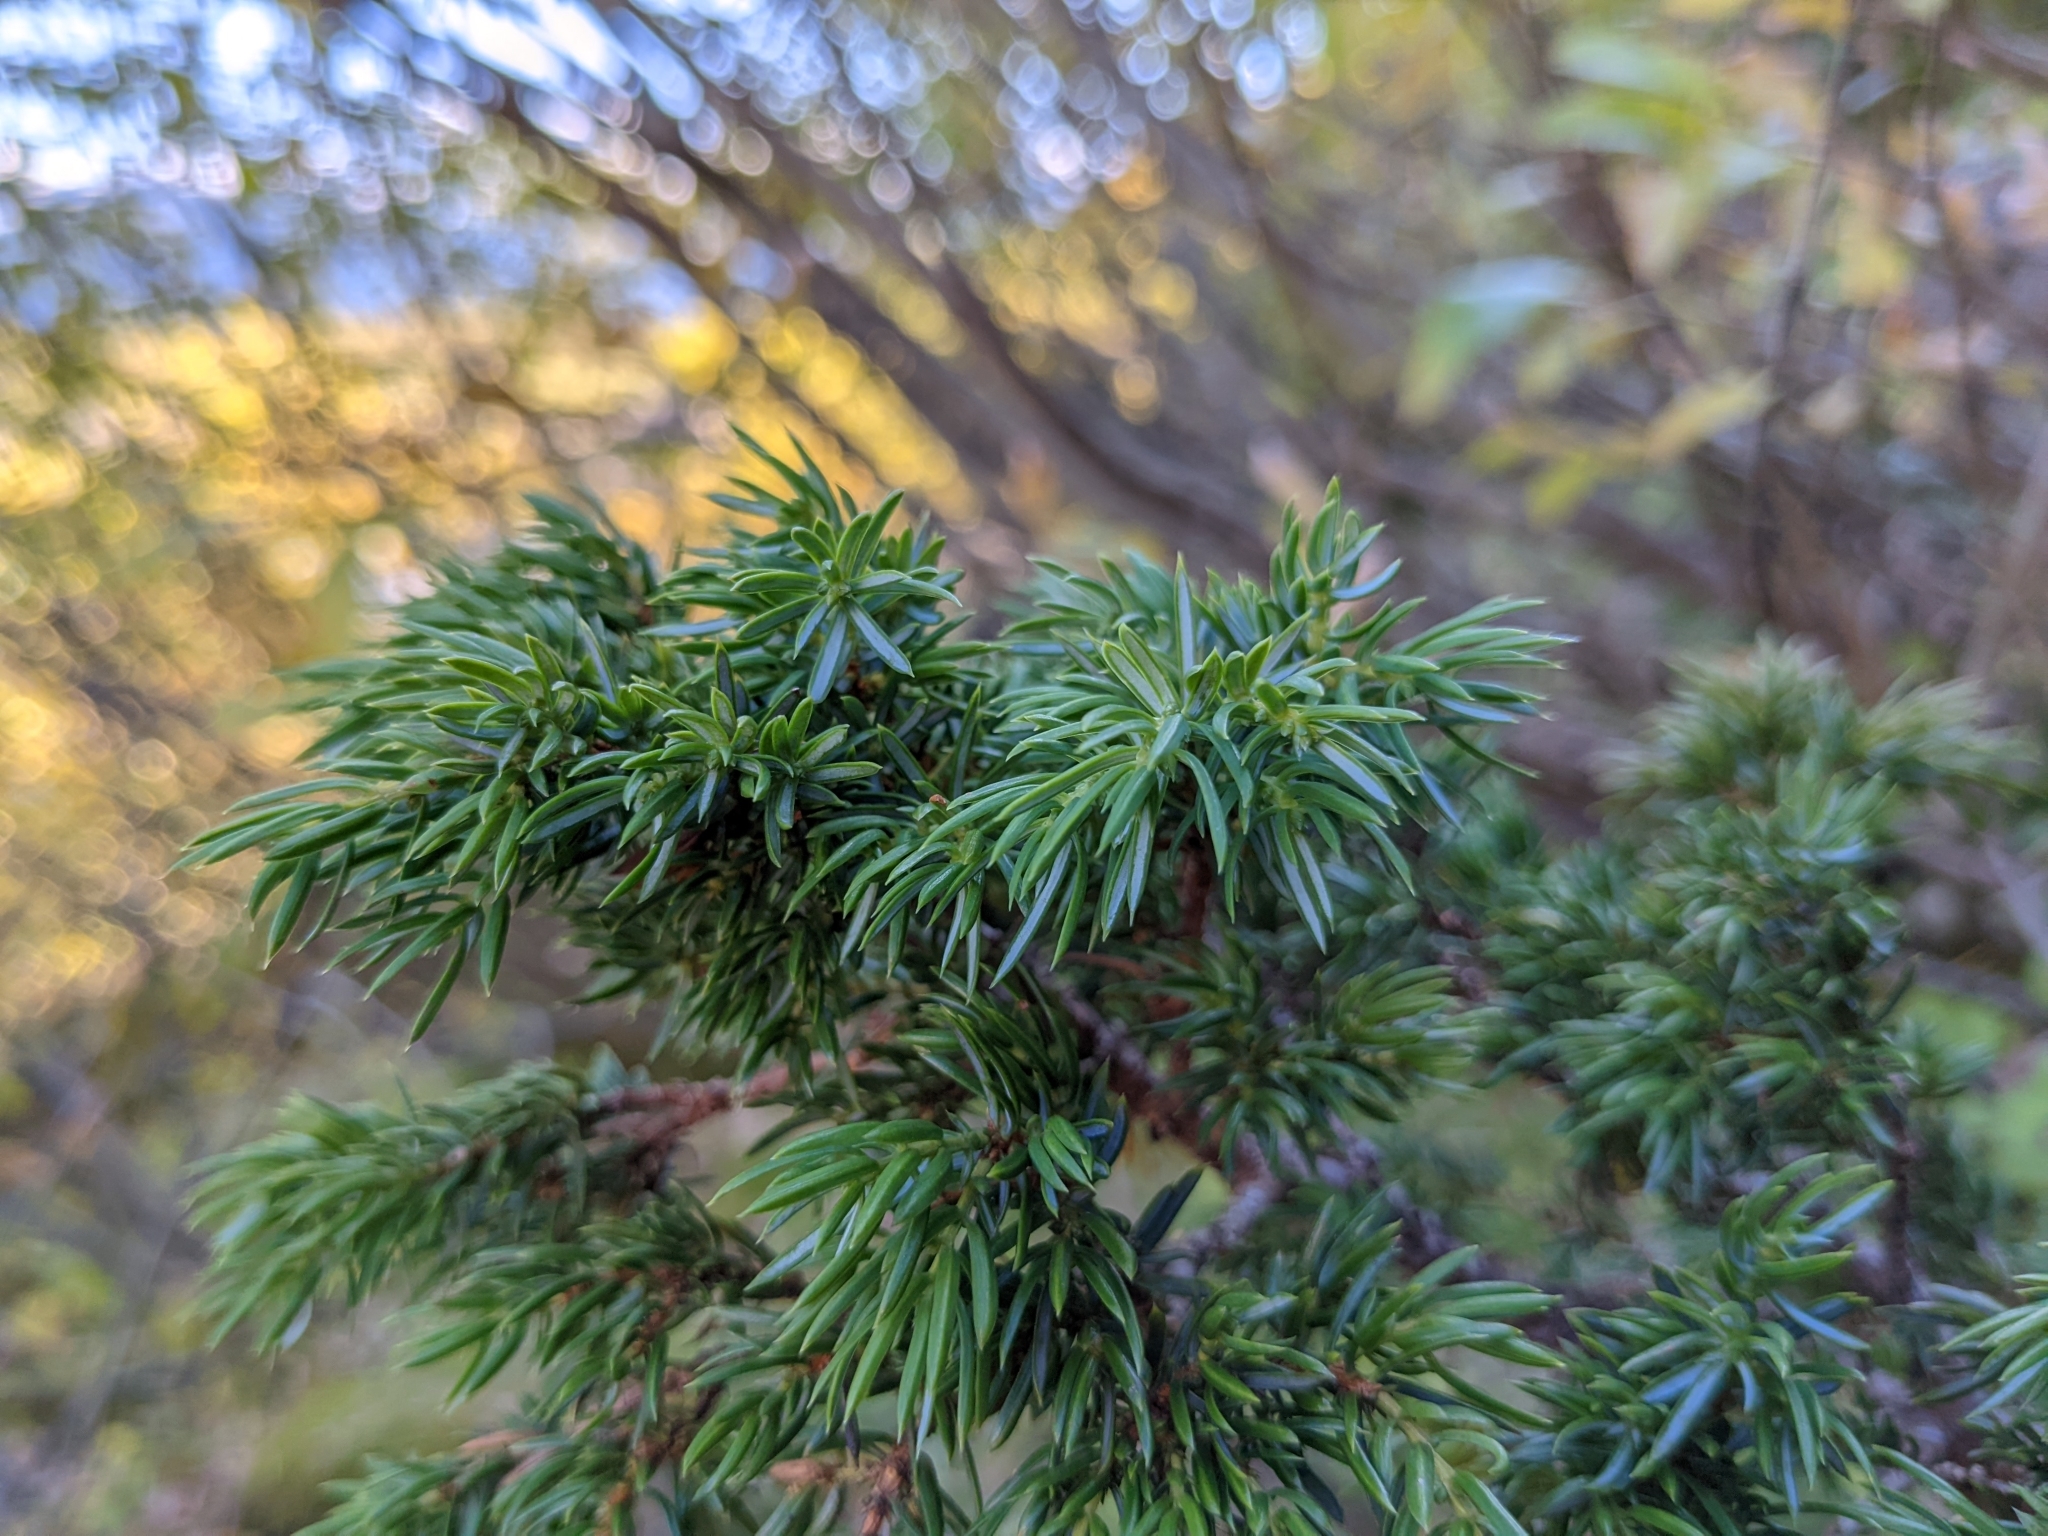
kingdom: Plantae
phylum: Tracheophyta
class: Pinopsida
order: Pinales
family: Cupressaceae
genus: Juniperus
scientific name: Juniperus communis
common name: Common juniper
